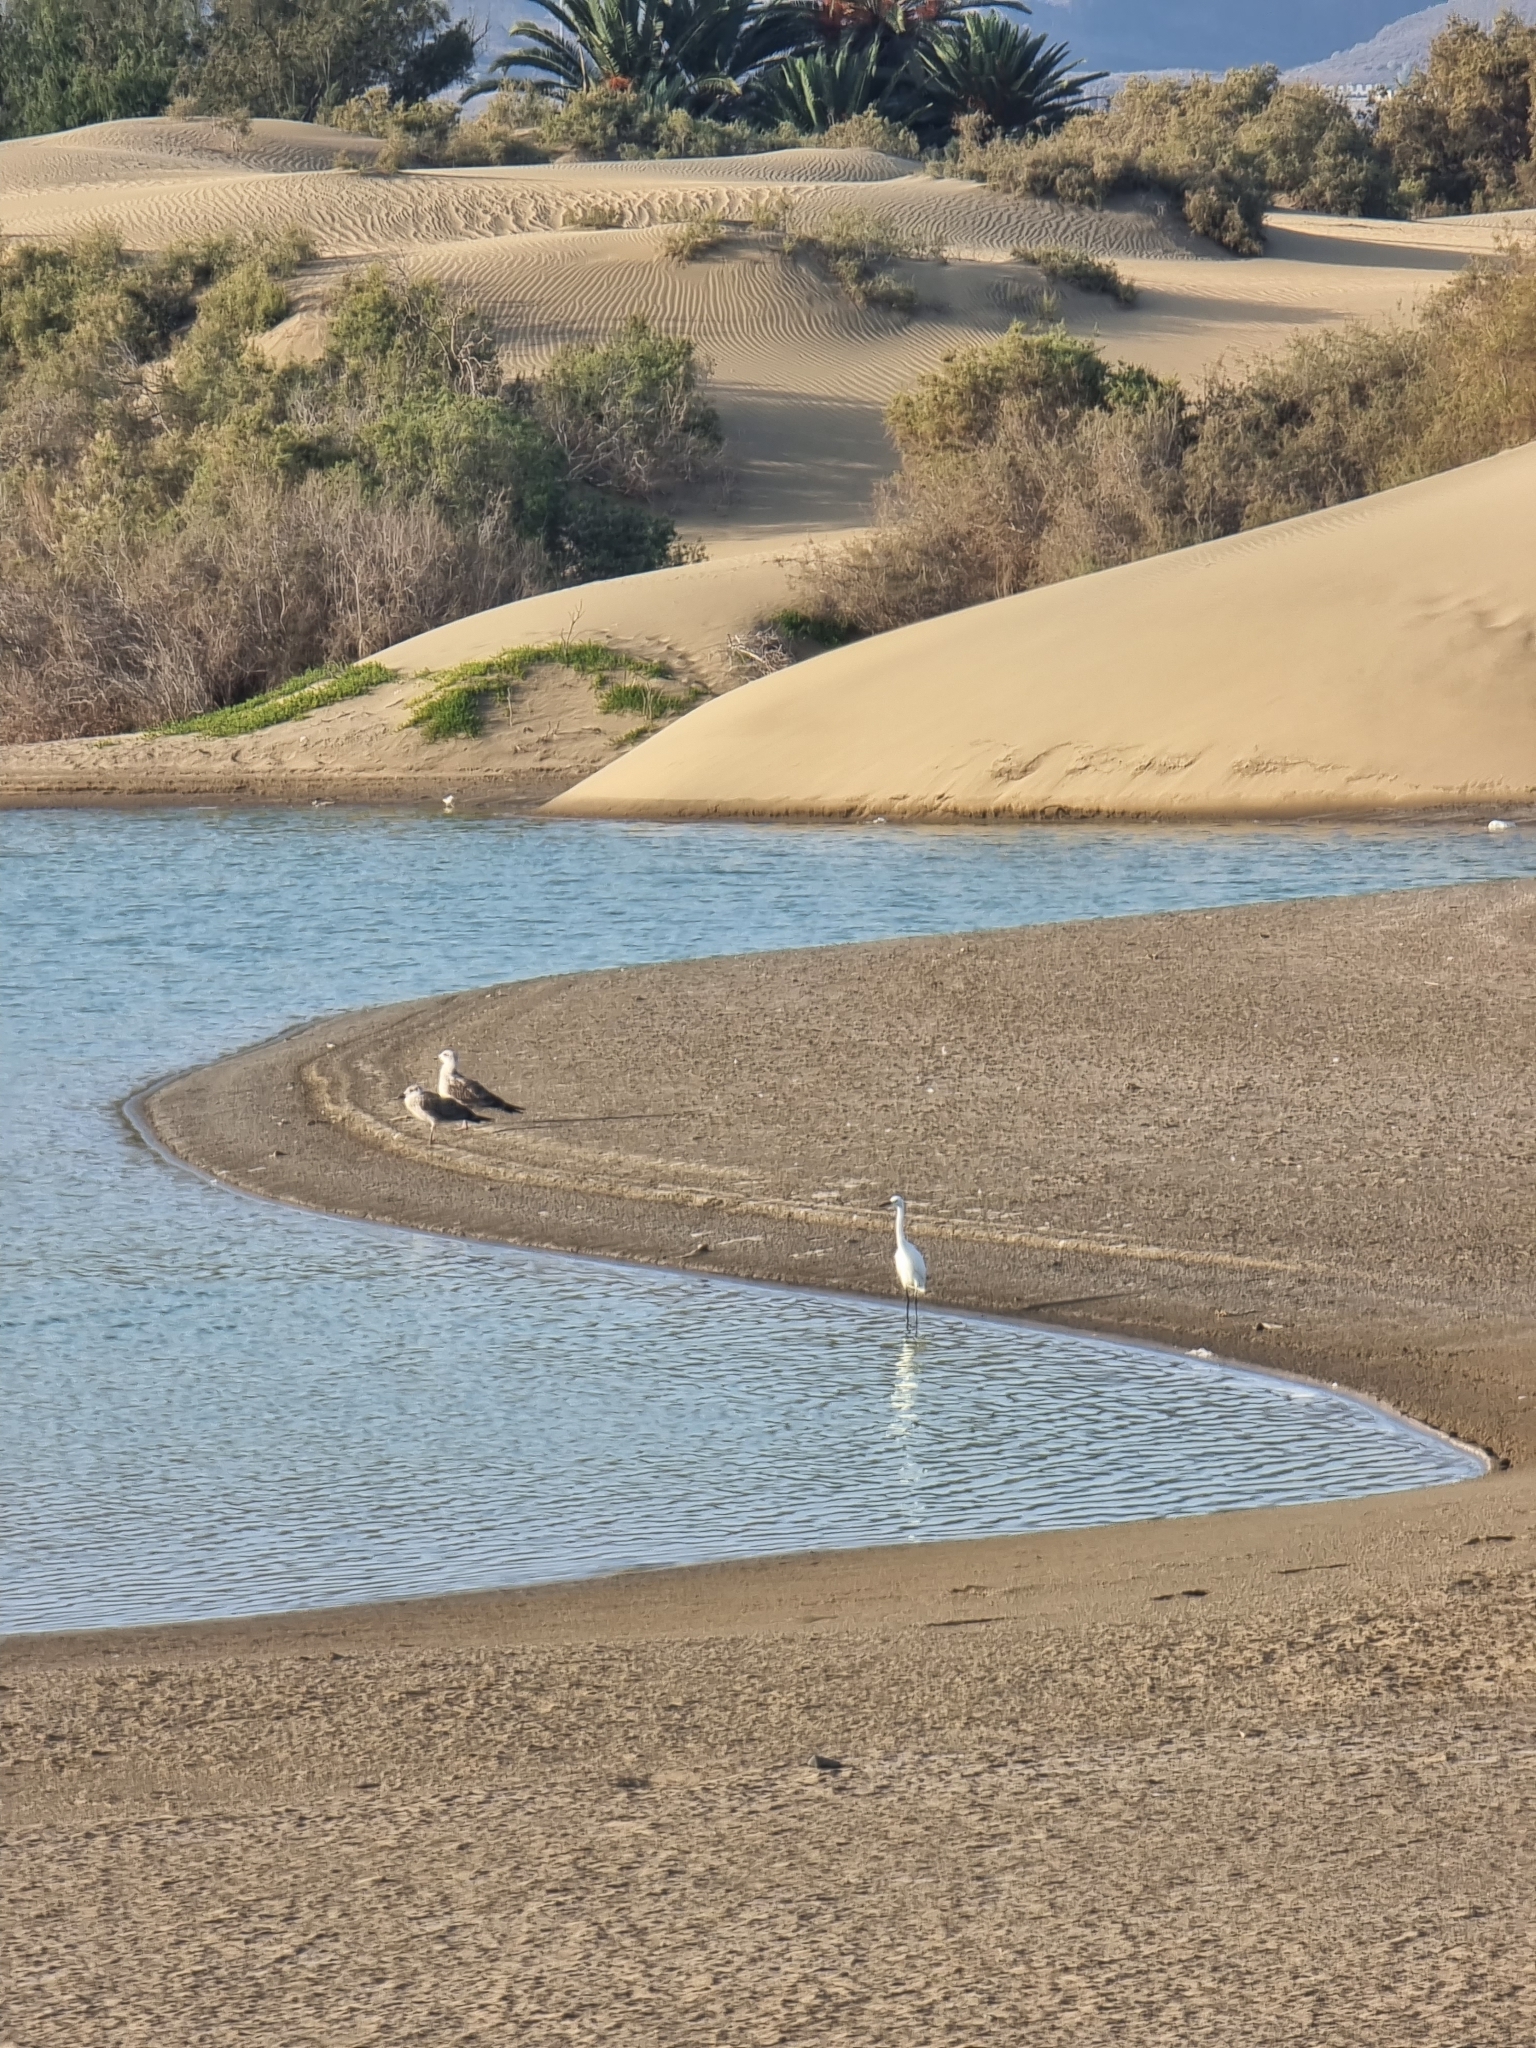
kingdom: Animalia
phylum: Chordata
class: Aves
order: Charadriiformes
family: Laridae
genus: Larus
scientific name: Larus michahellis
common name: Yellow-legged gull
